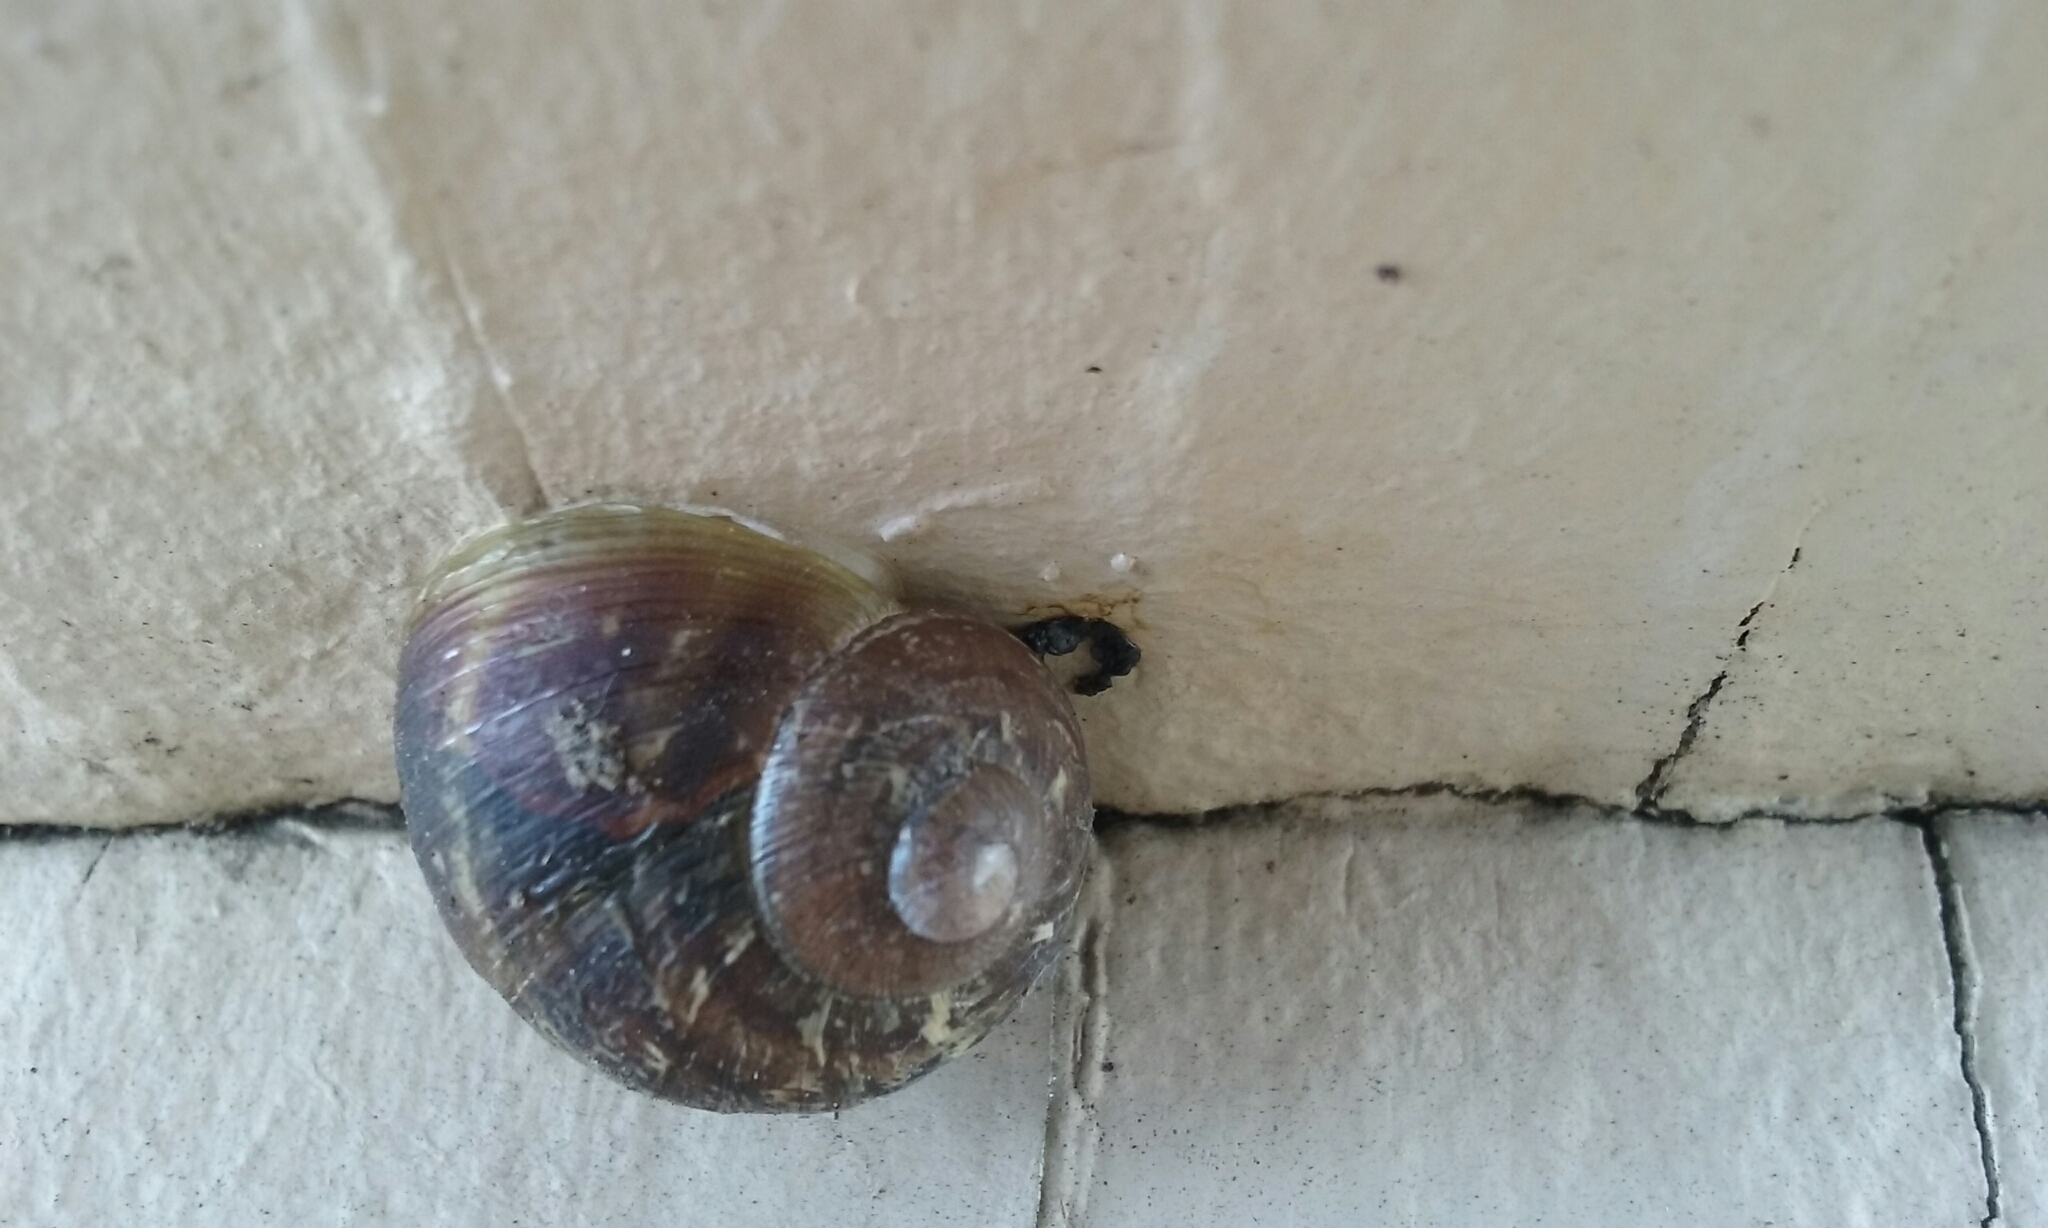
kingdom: Animalia
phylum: Mollusca
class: Gastropoda
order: Stylommatophora
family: Helicidae
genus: Cornu
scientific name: Cornu aspersum
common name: Brown garden snail
